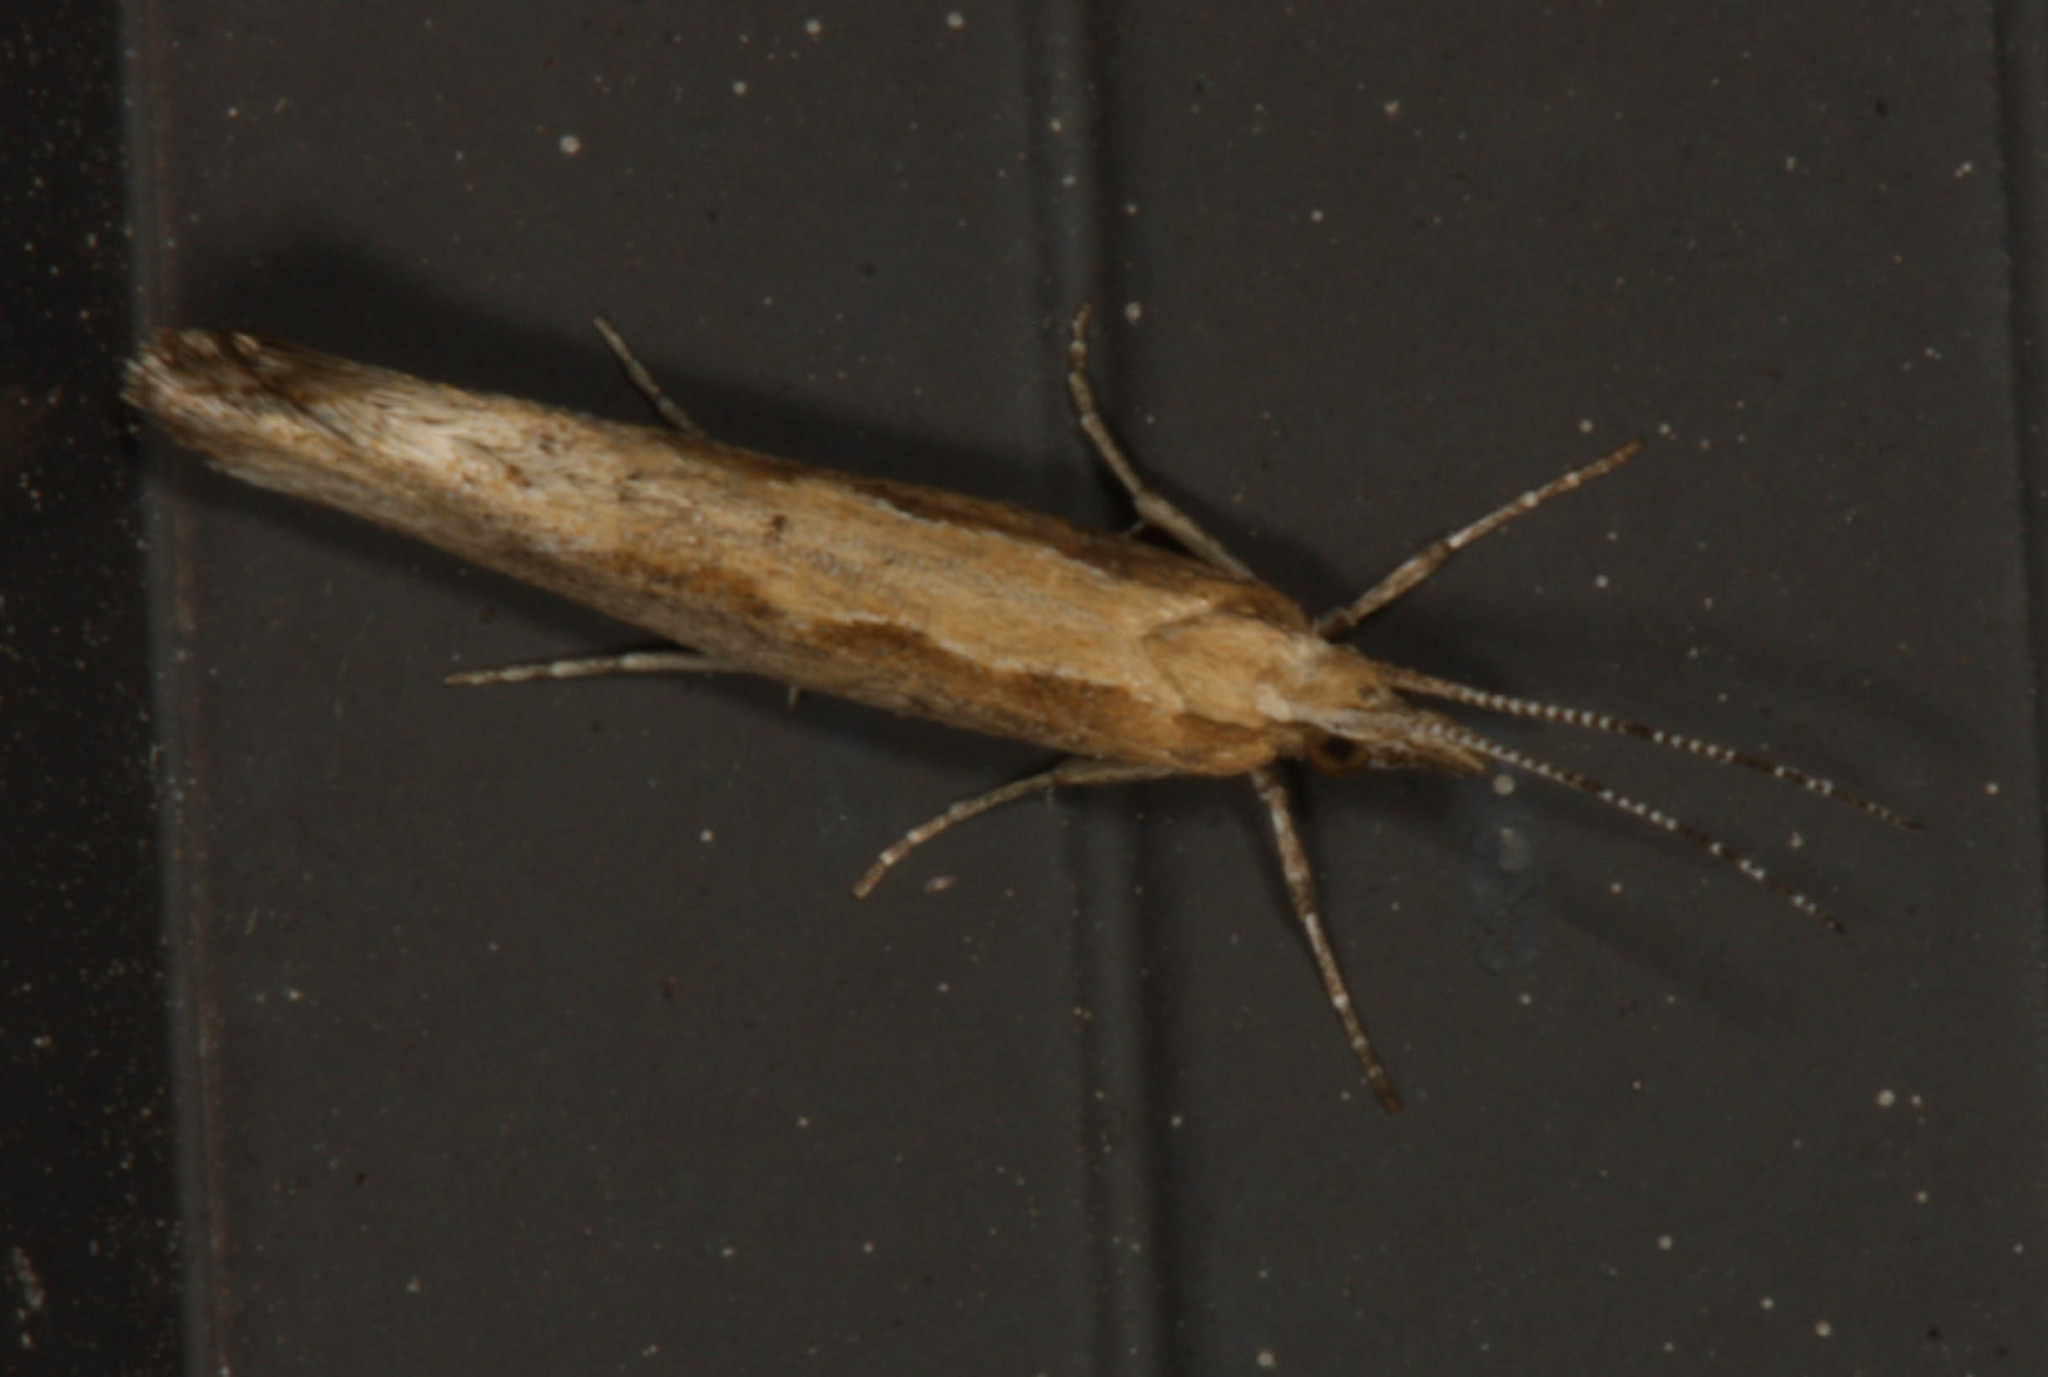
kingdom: Animalia
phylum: Arthropoda
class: Insecta
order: Lepidoptera
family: Plutellidae
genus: Plutella
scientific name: Plutella xylostella
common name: Diamond-back moth
